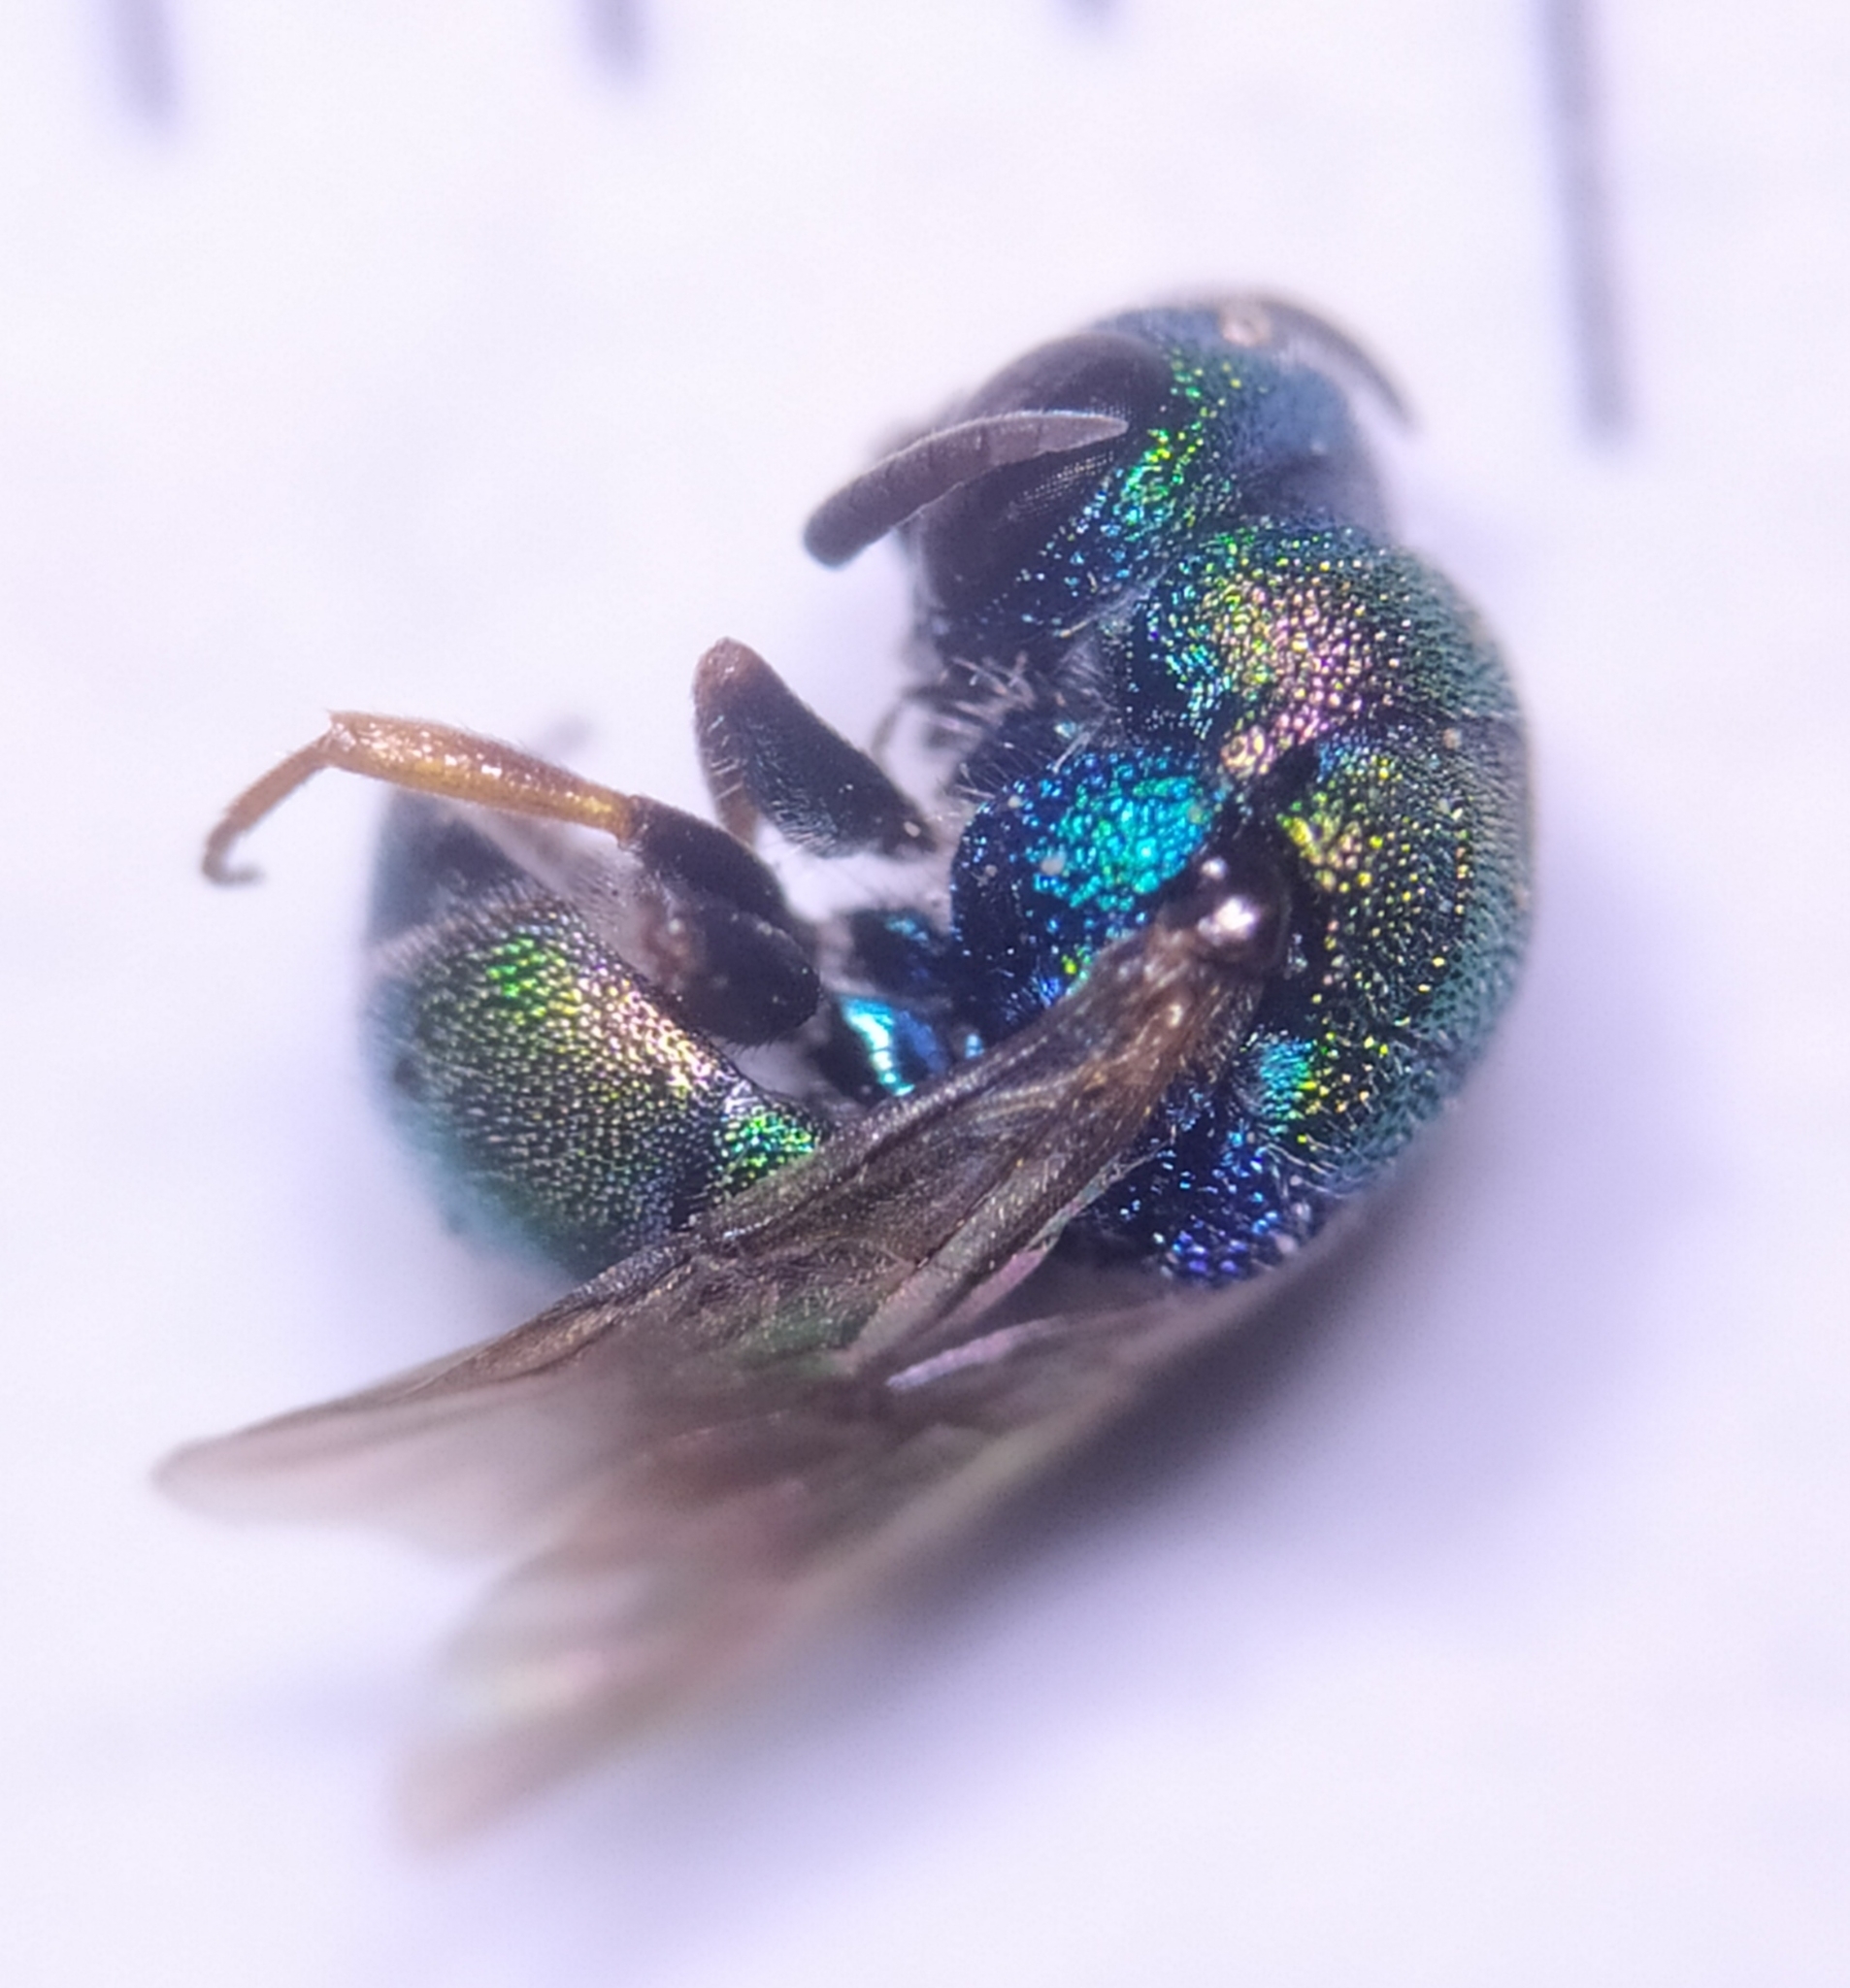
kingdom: Animalia
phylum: Arthropoda
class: Insecta
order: Hymenoptera
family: Chrysididae
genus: Hedychridium
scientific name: Hedychridium
